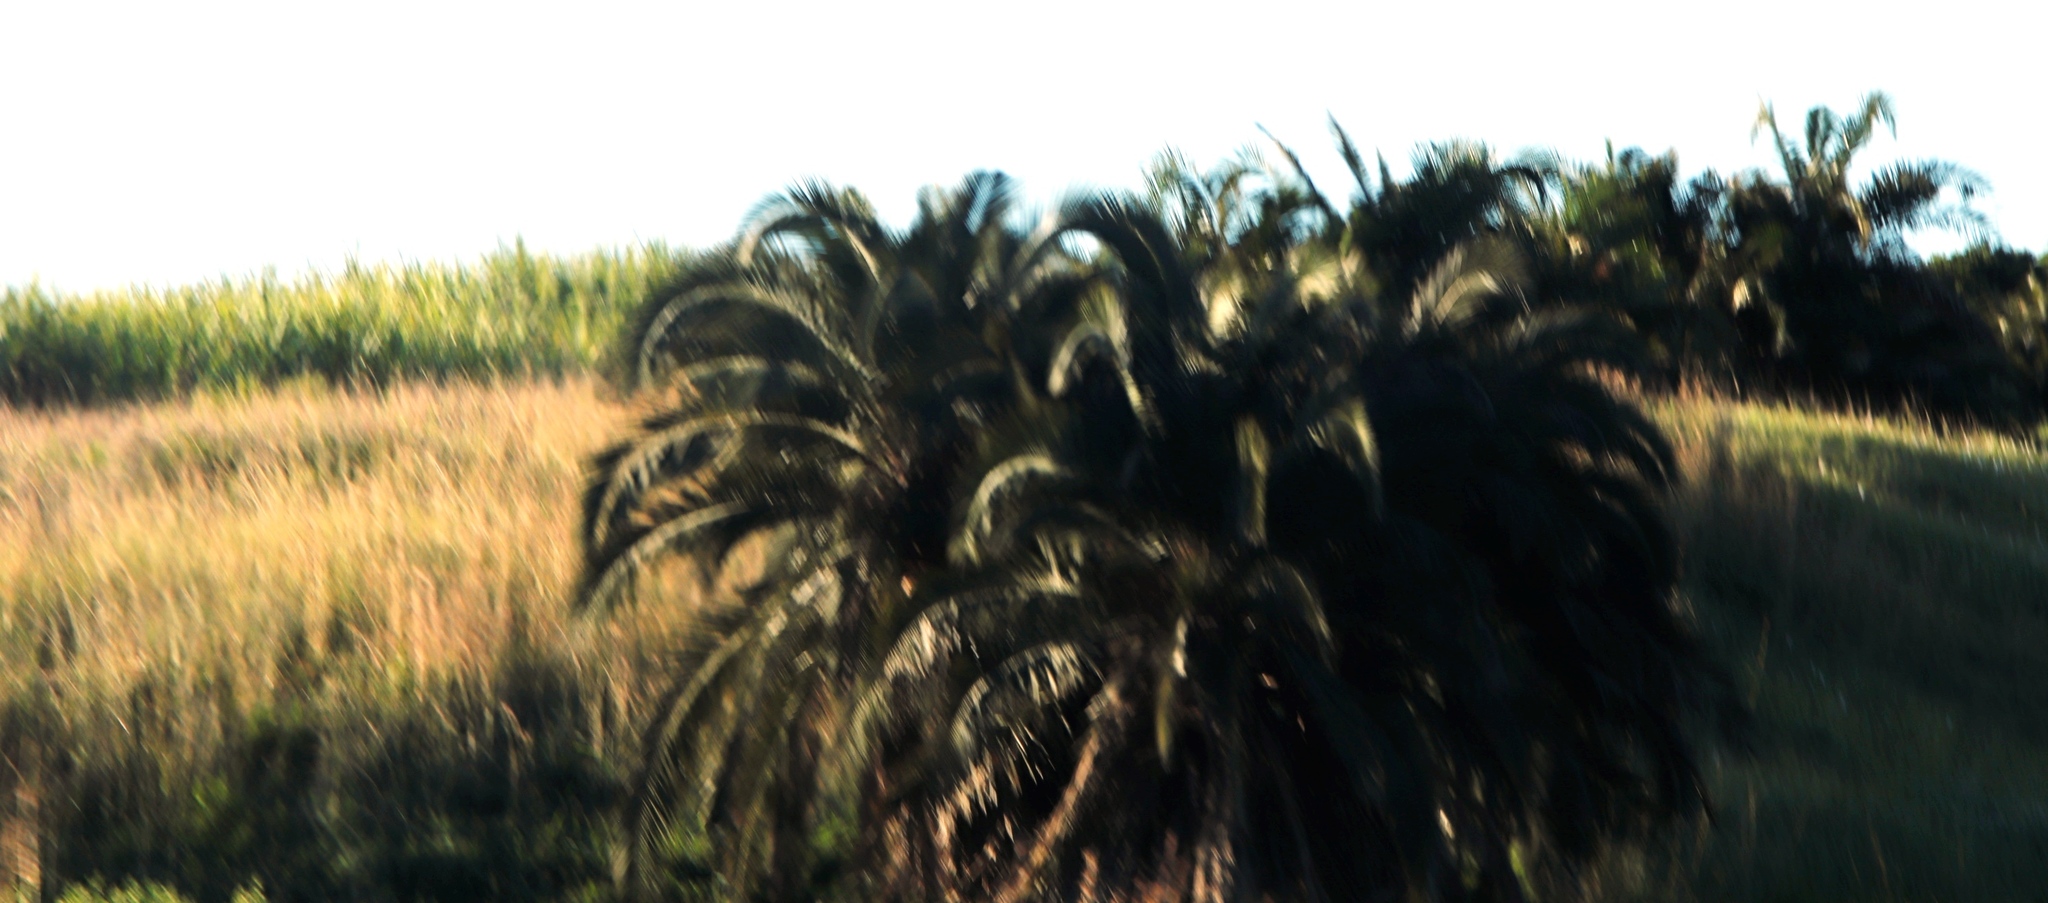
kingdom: Plantae
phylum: Tracheophyta
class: Liliopsida
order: Arecales
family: Arecaceae
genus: Phoenix
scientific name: Phoenix reclinata
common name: Senegal date palm
